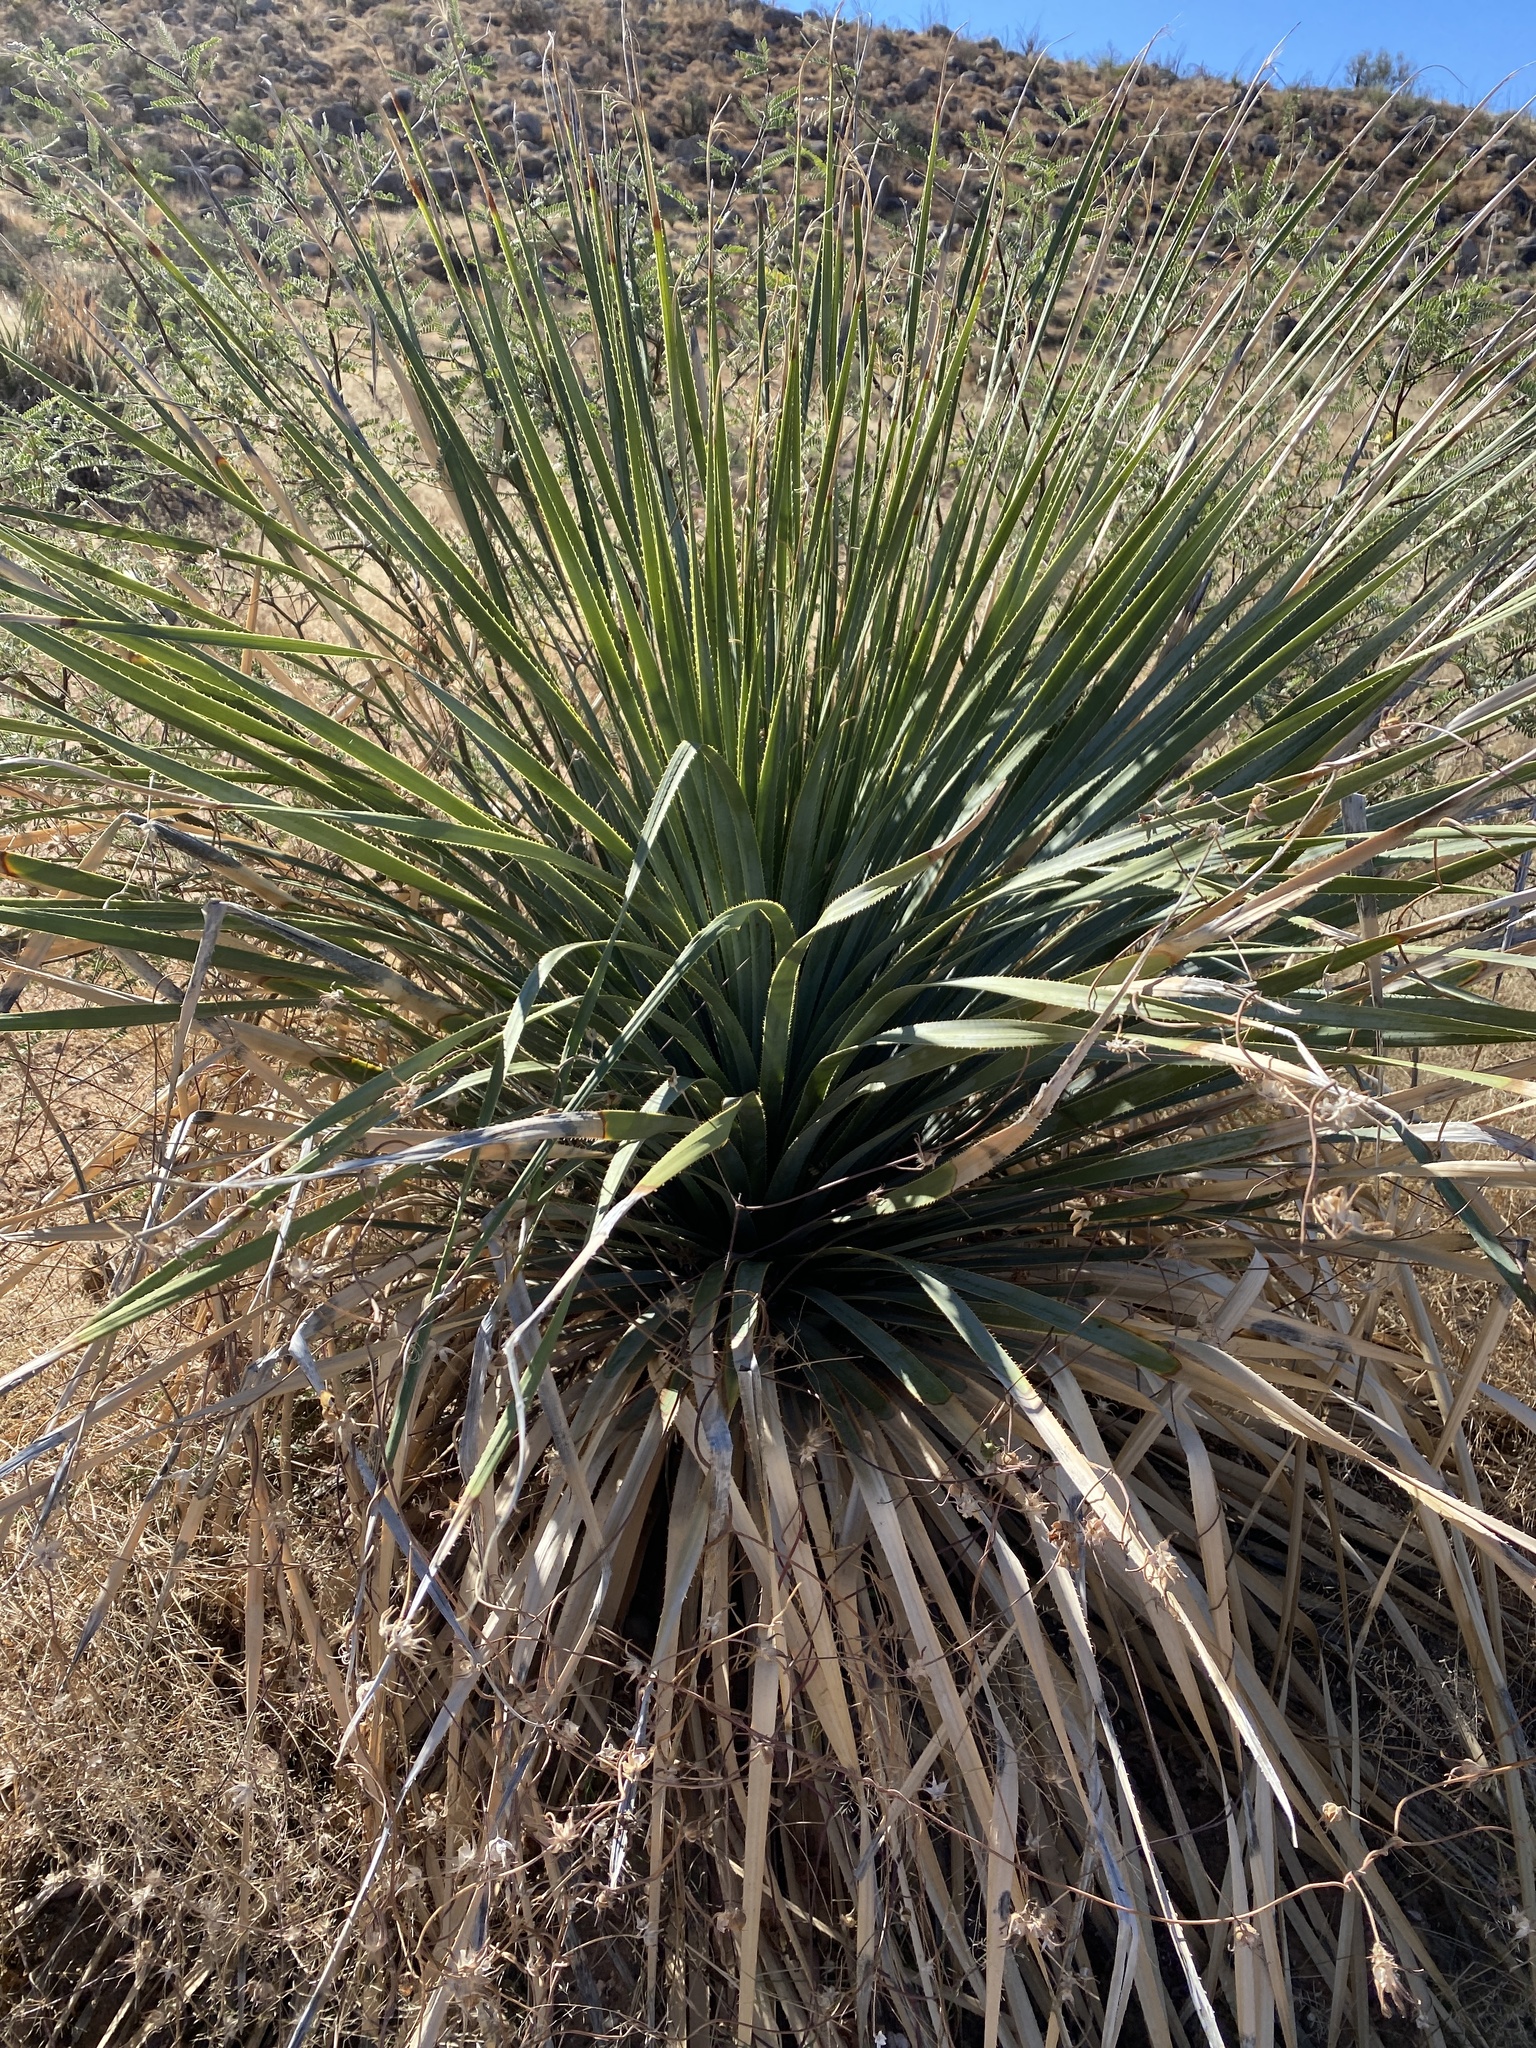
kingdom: Plantae
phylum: Tracheophyta
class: Liliopsida
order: Asparagales
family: Asparagaceae
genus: Dasylirion
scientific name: Dasylirion wheeleri
